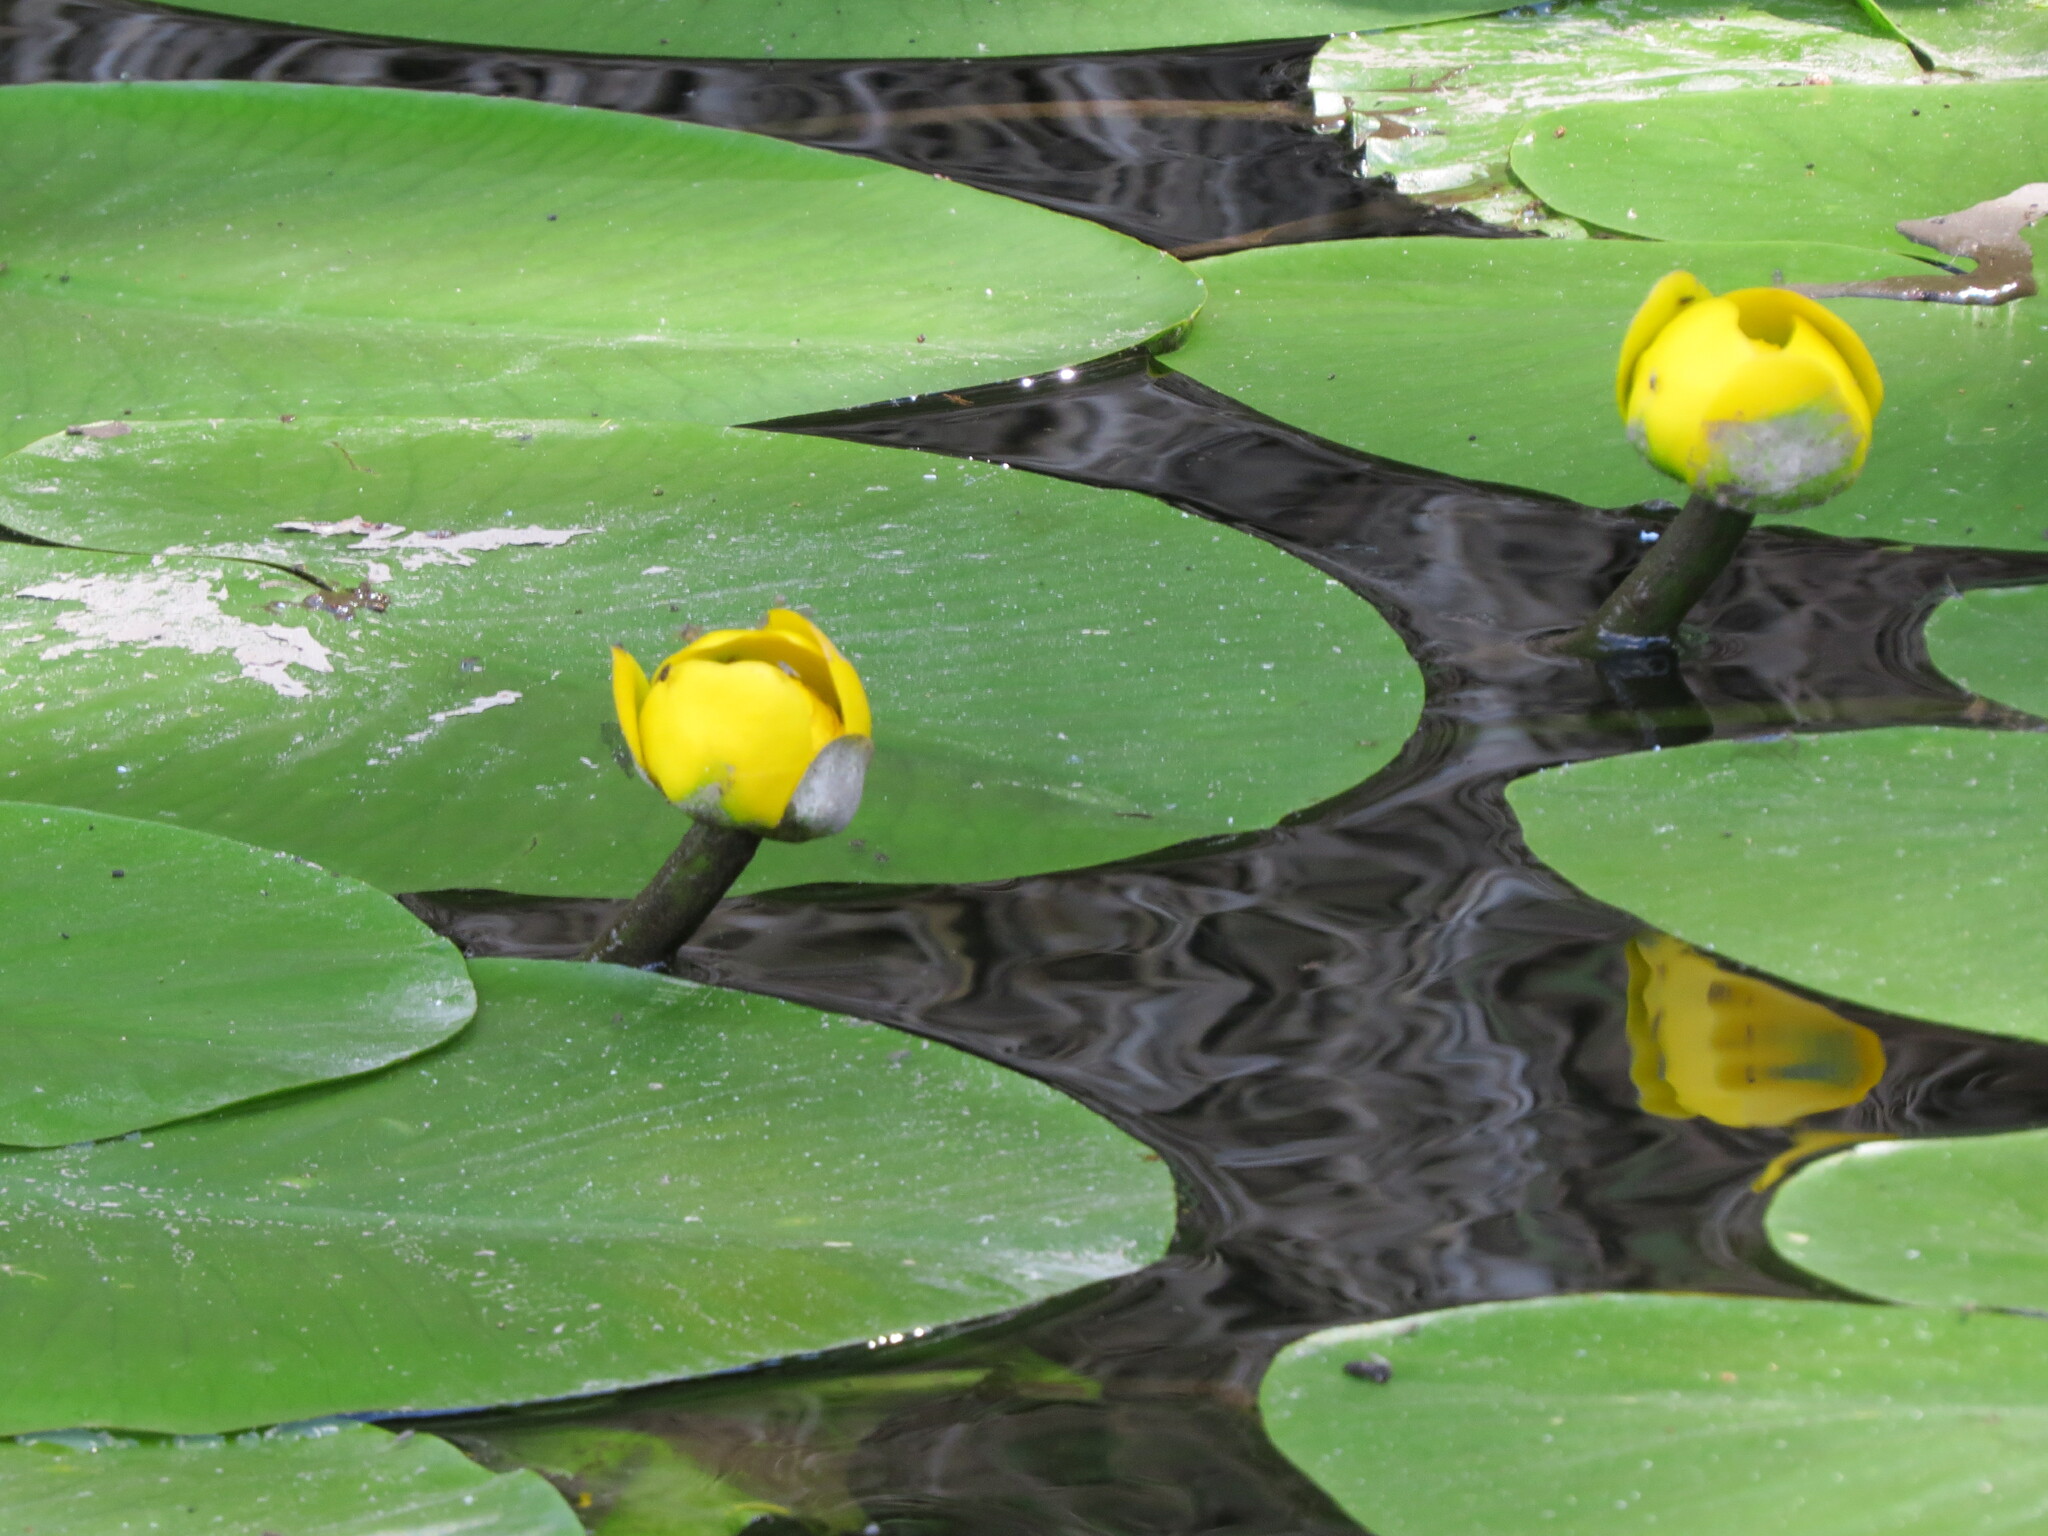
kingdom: Plantae
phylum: Tracheophyta
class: Magnoliopsida
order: Nymphaeales
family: Nymphaeaceae
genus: Nuphar
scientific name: Nuphar lutea
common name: Yellow water-lily
